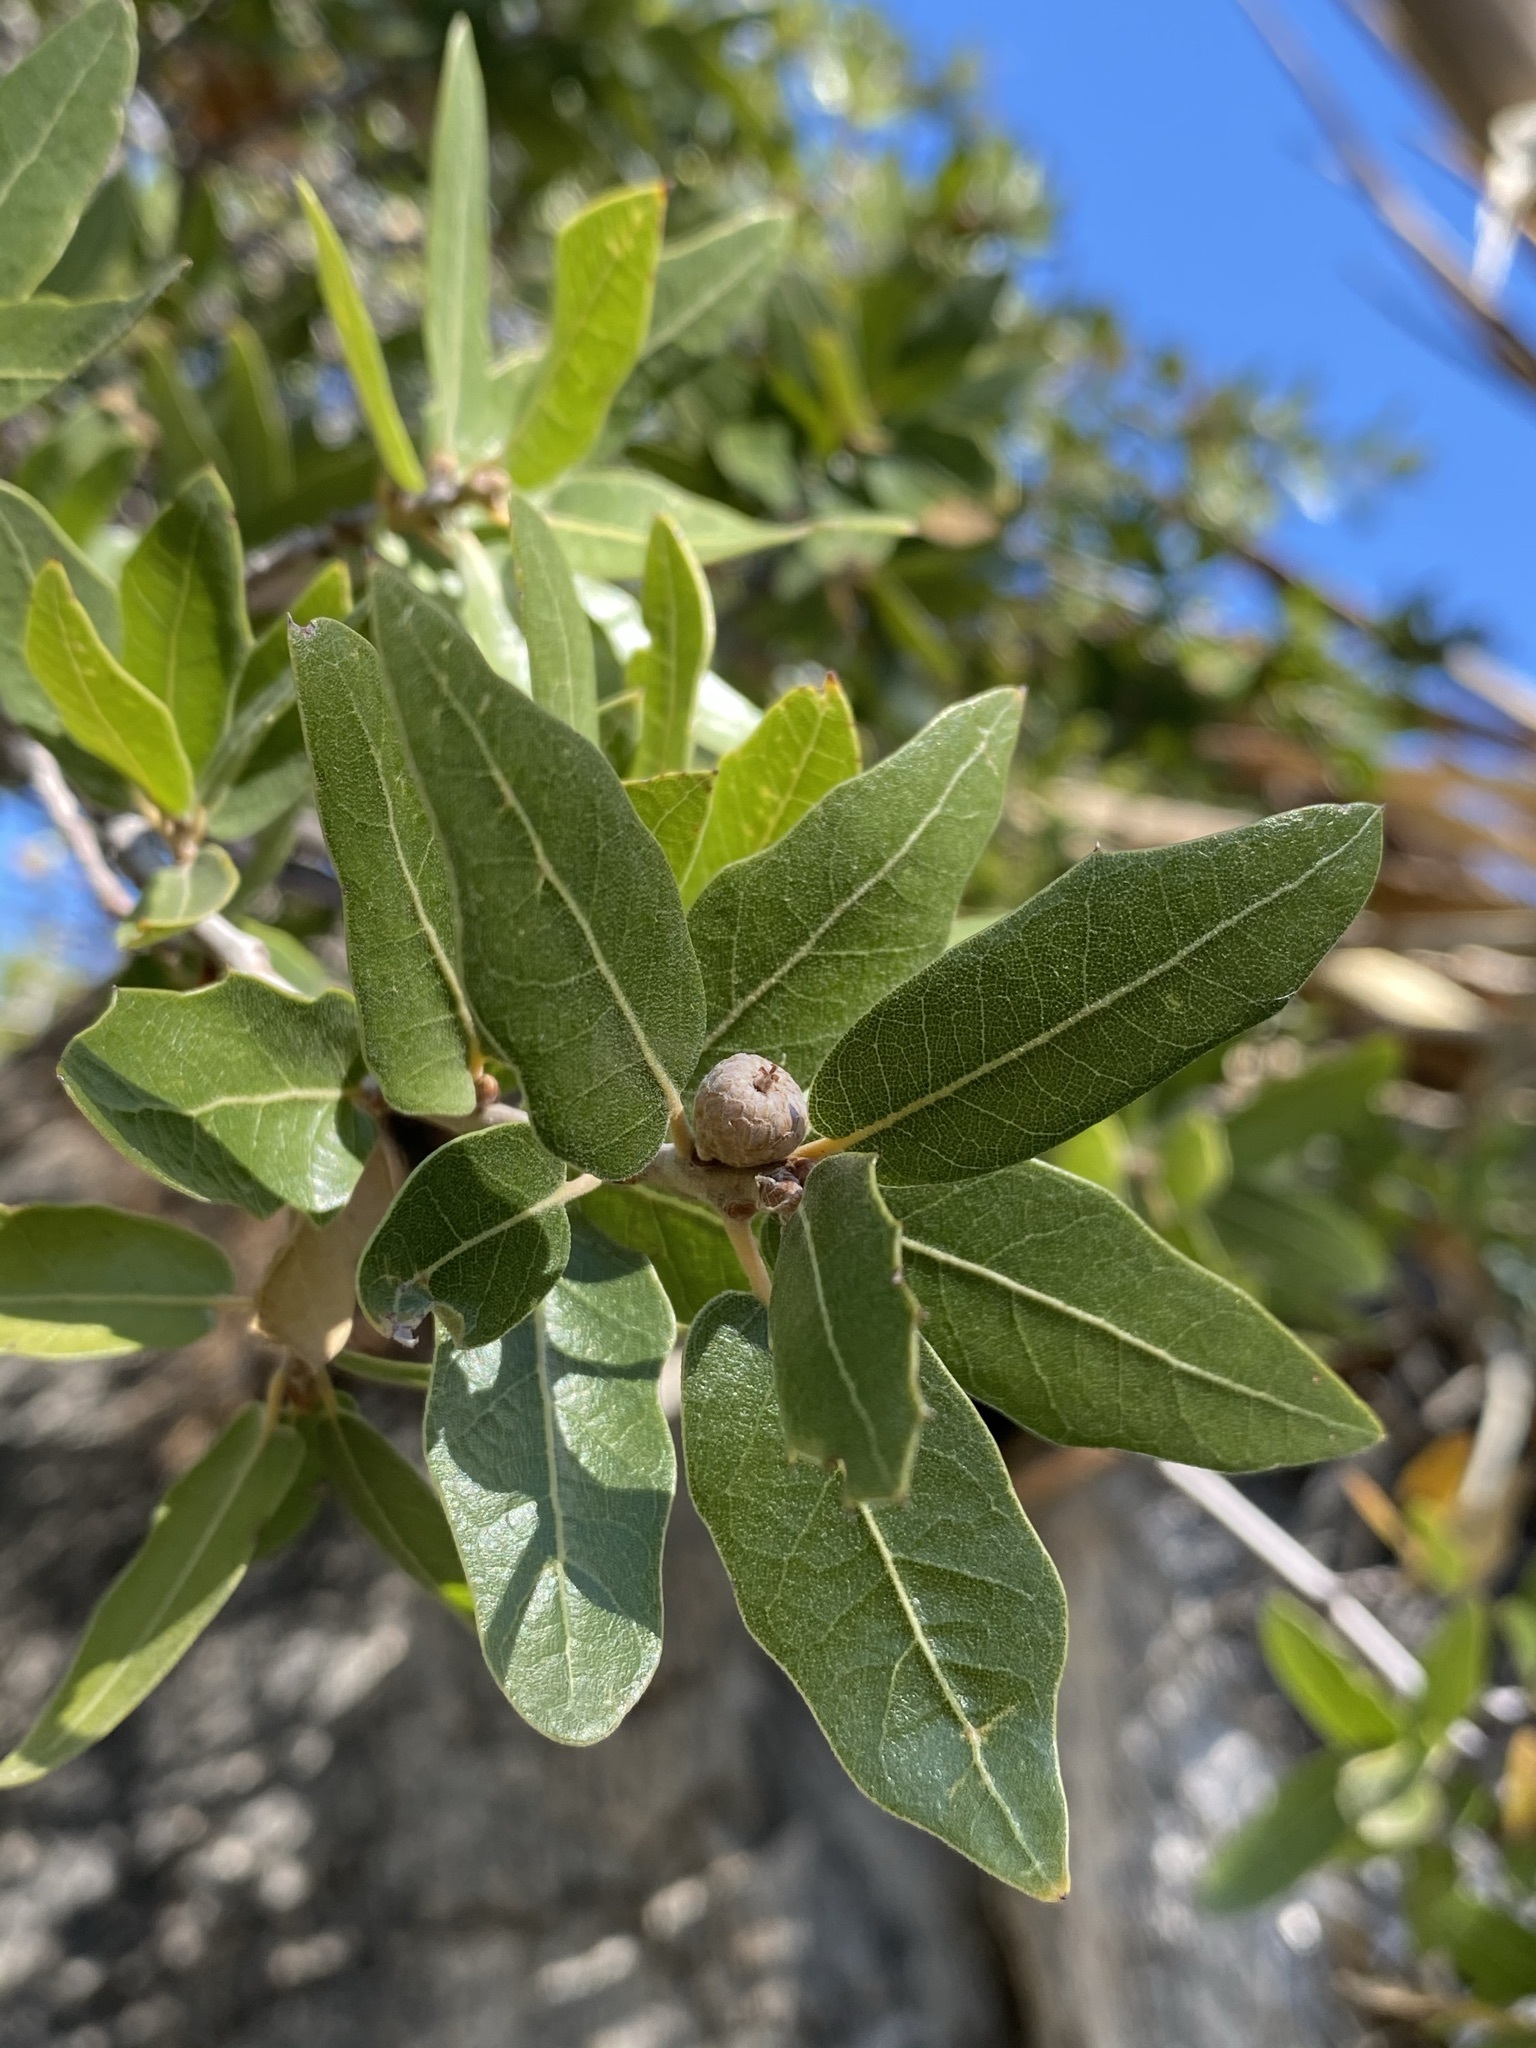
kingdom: Plantae
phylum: Tracheophyta
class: Magnoliopsida
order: Fagales
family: Fagaceae
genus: Quercus
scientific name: Quercus emoryi
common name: Emory oak
